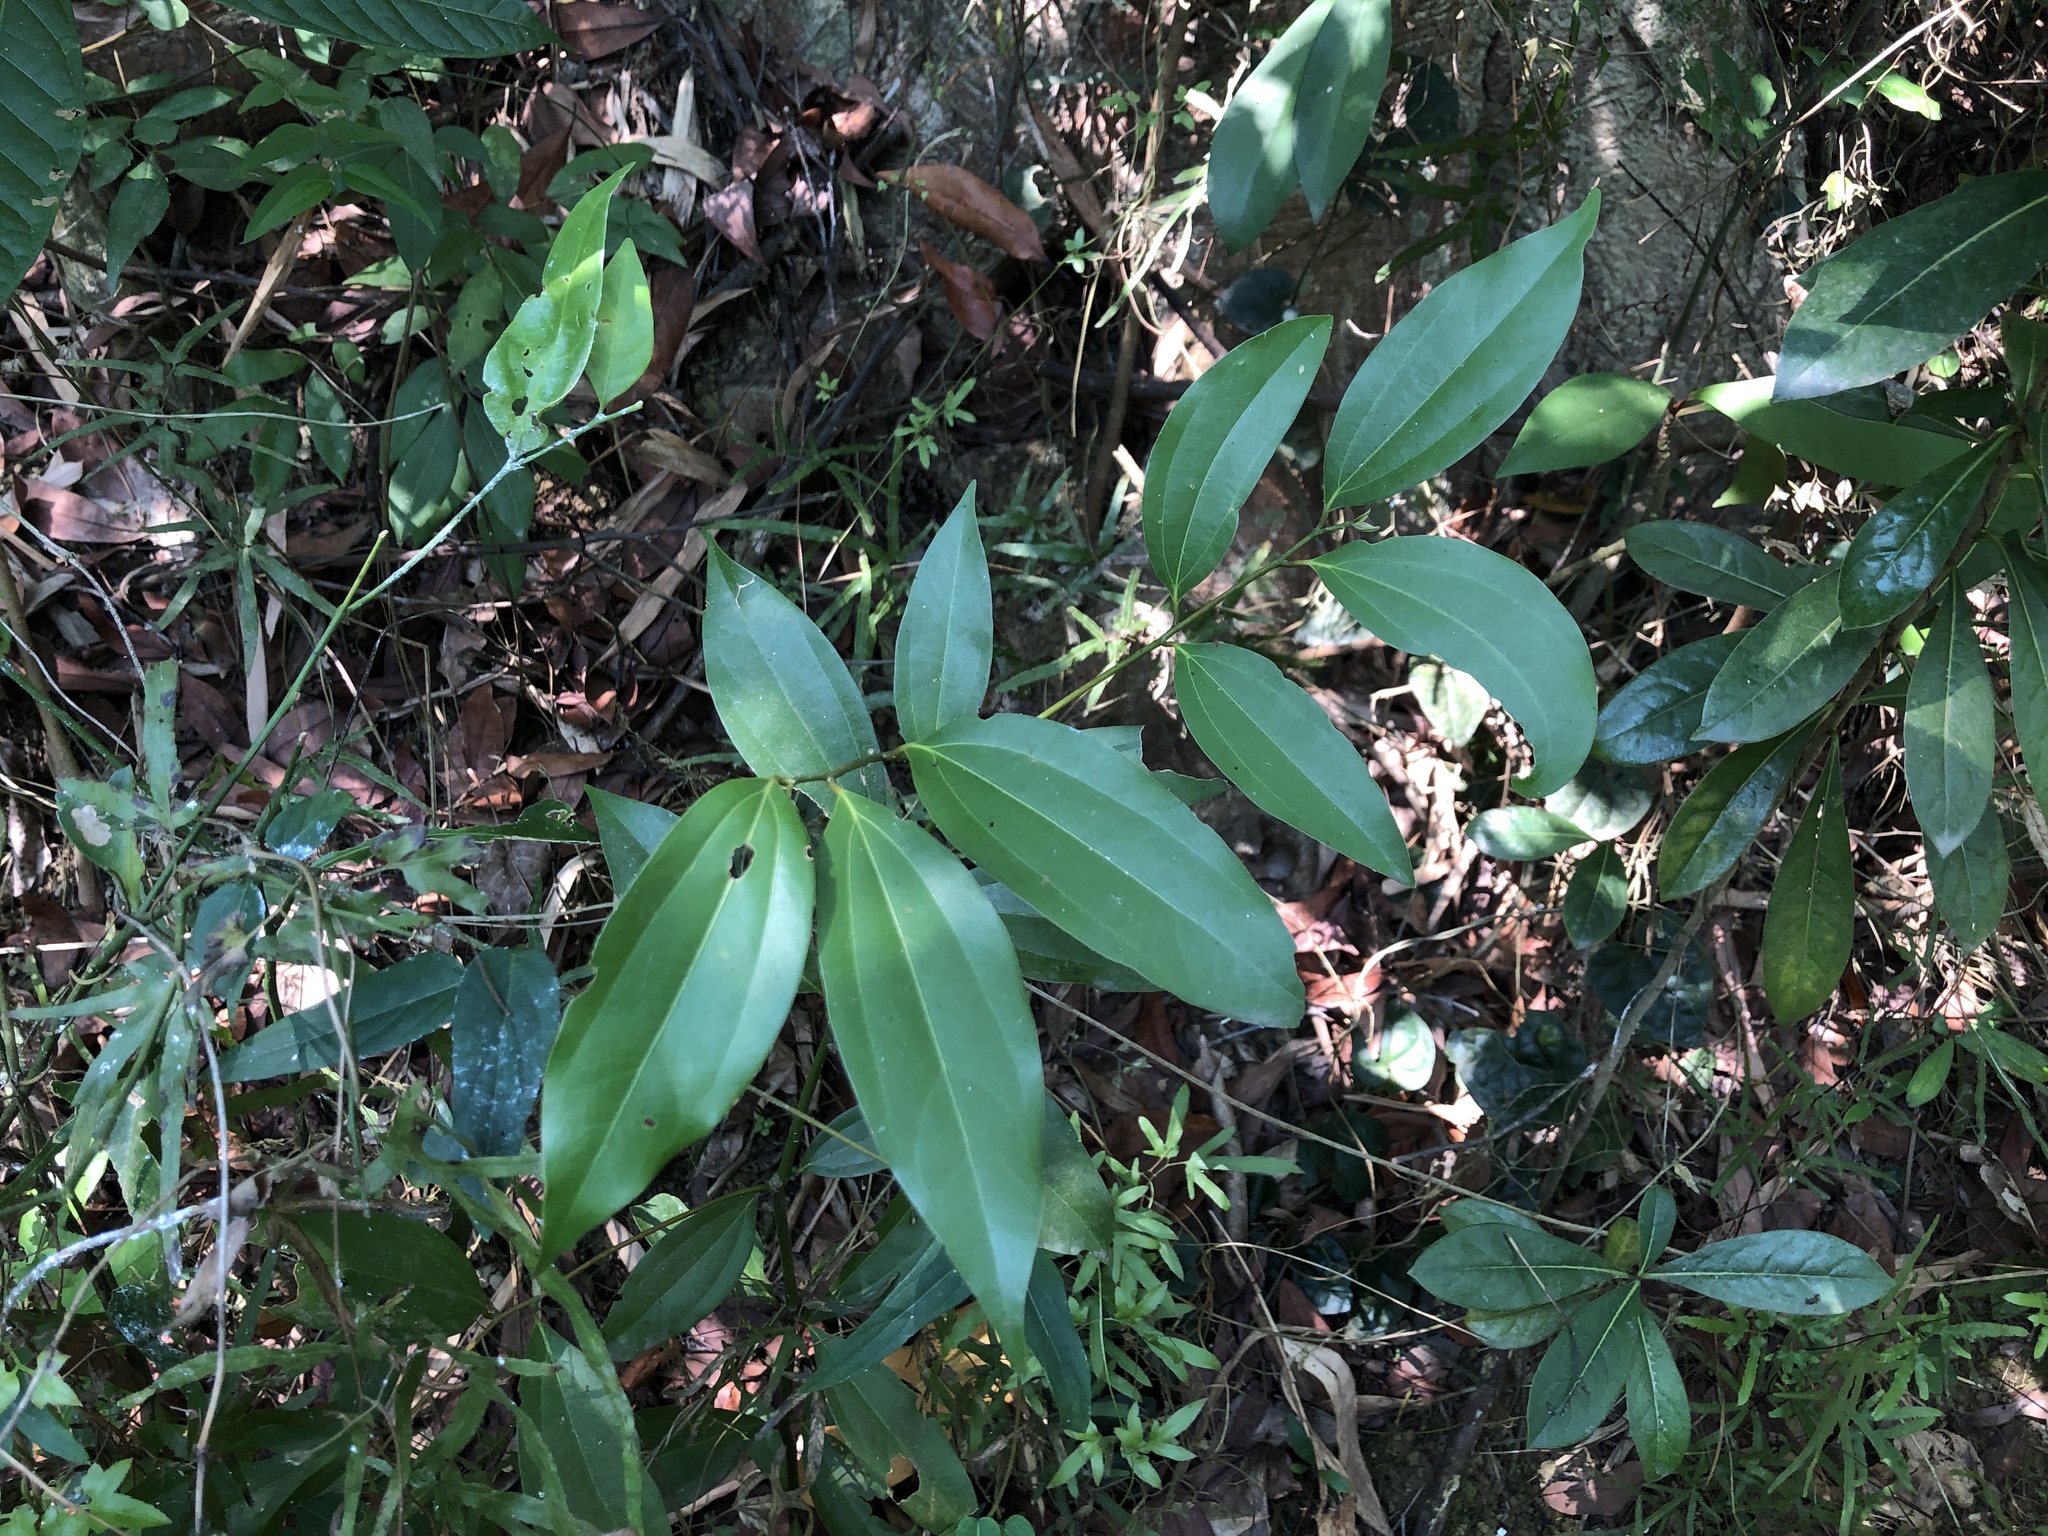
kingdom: Plantae
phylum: Tracheophyta
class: Magnoliopsida
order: Laurales
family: Lauraceae
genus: Cinnamomum
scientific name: Cinnamomum osmophloeum
